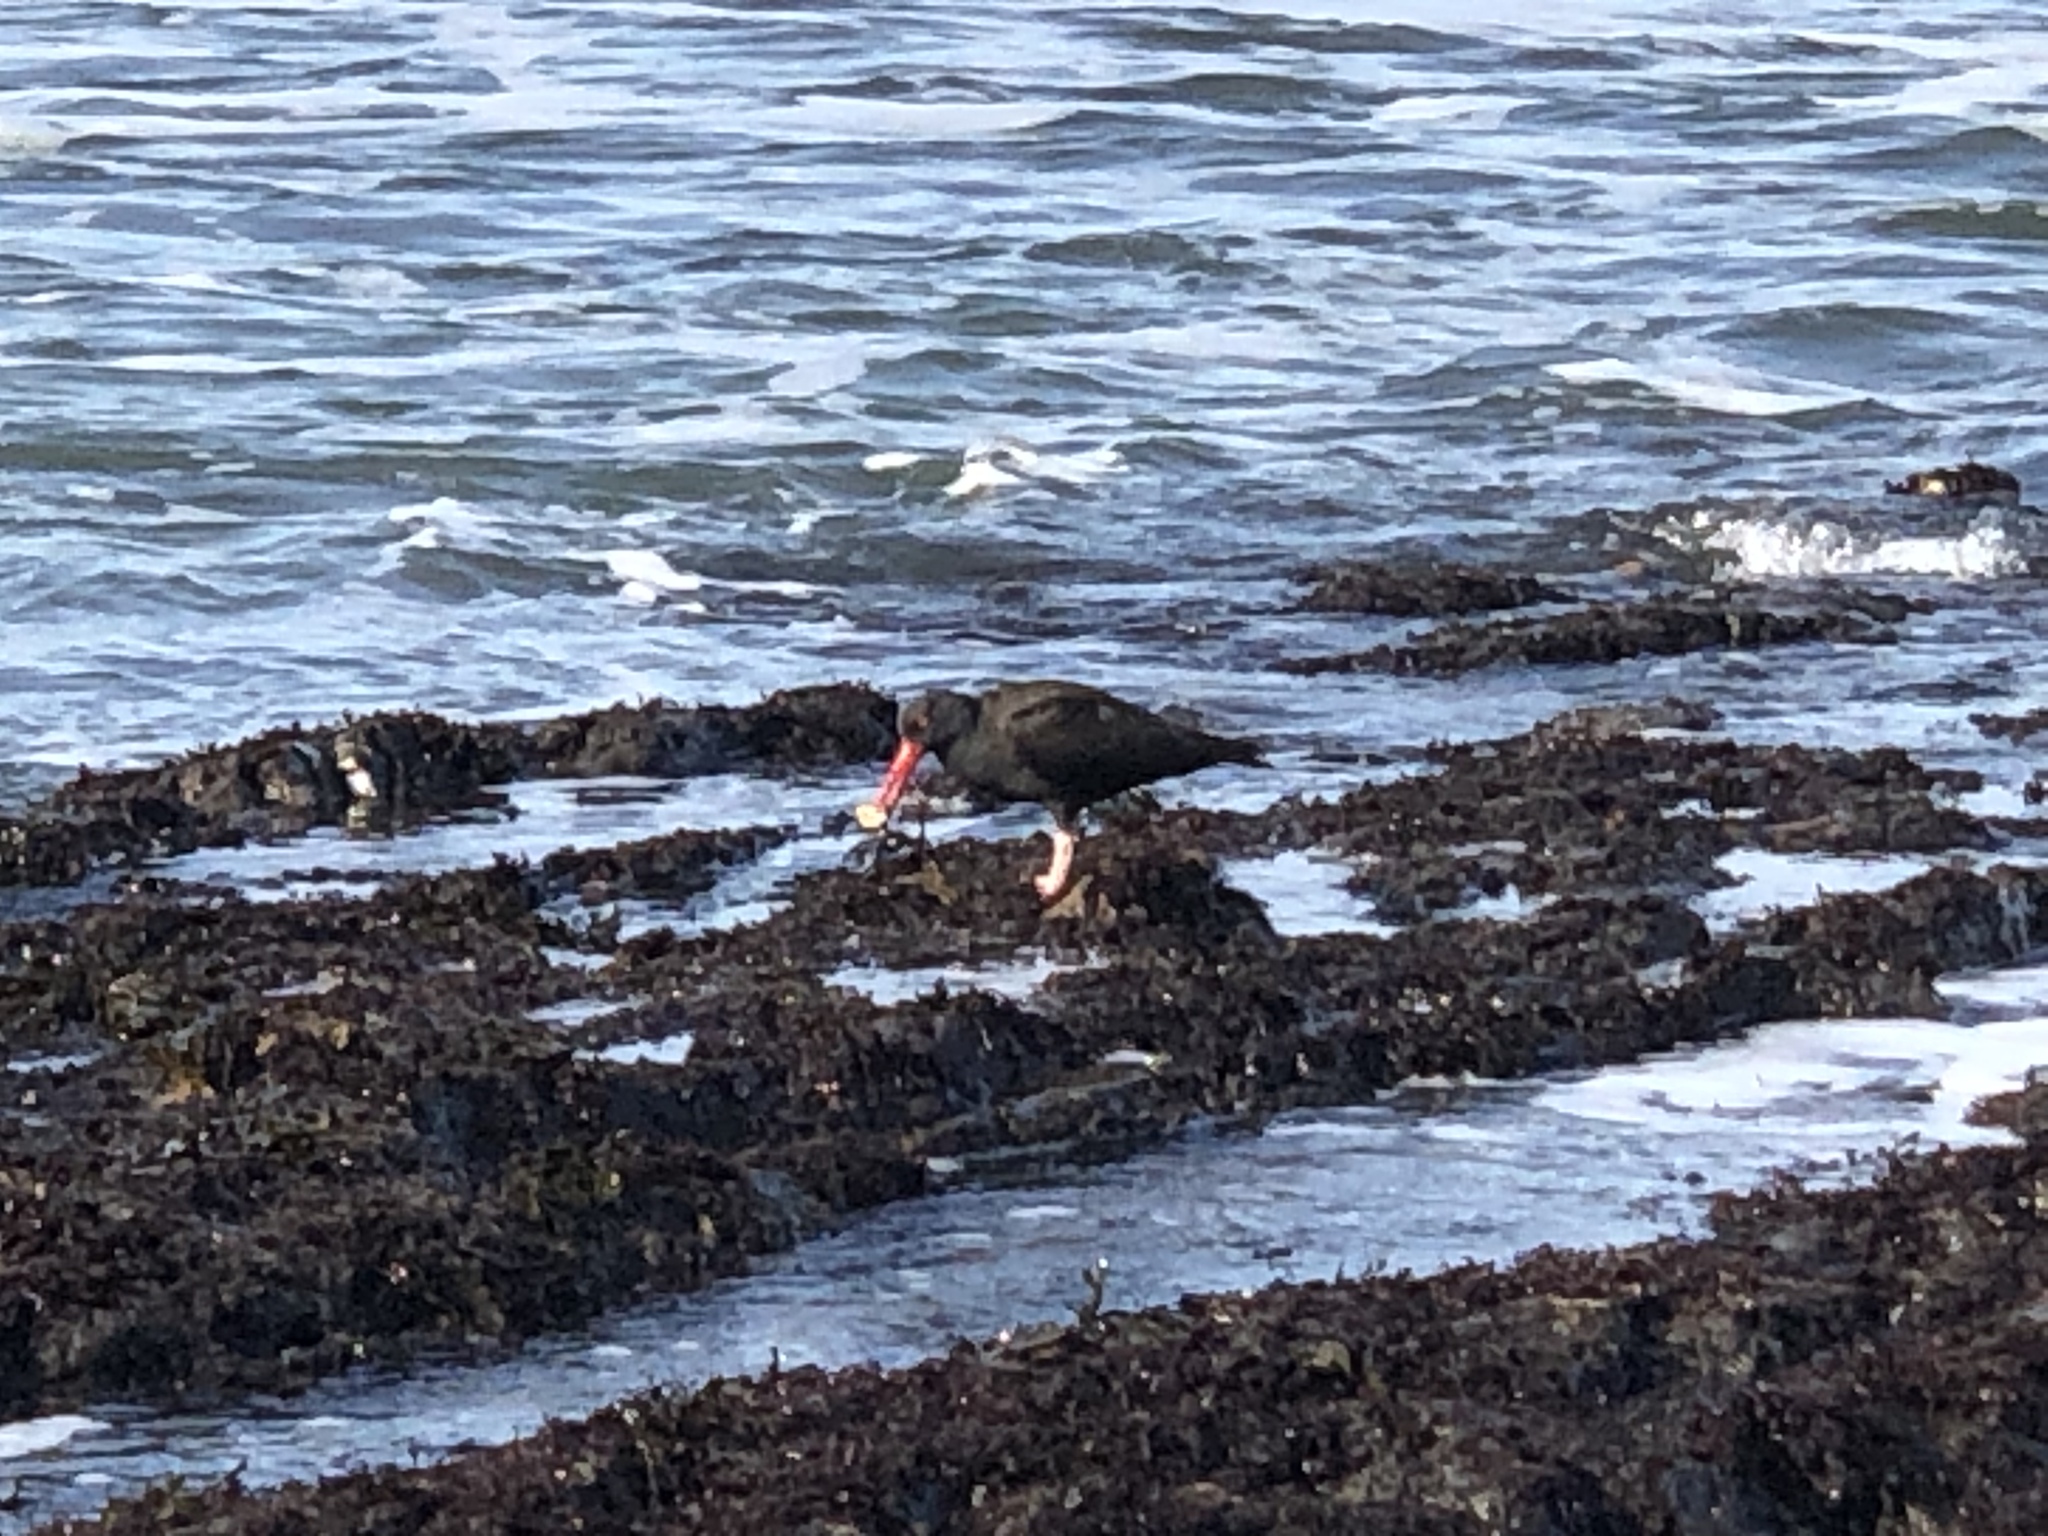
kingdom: Animalia
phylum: Chordata
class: Aves
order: Charadriiformes
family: Haematopodidae
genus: Haematopus
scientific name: Haematopus bachmani
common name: Black oystercatcher
